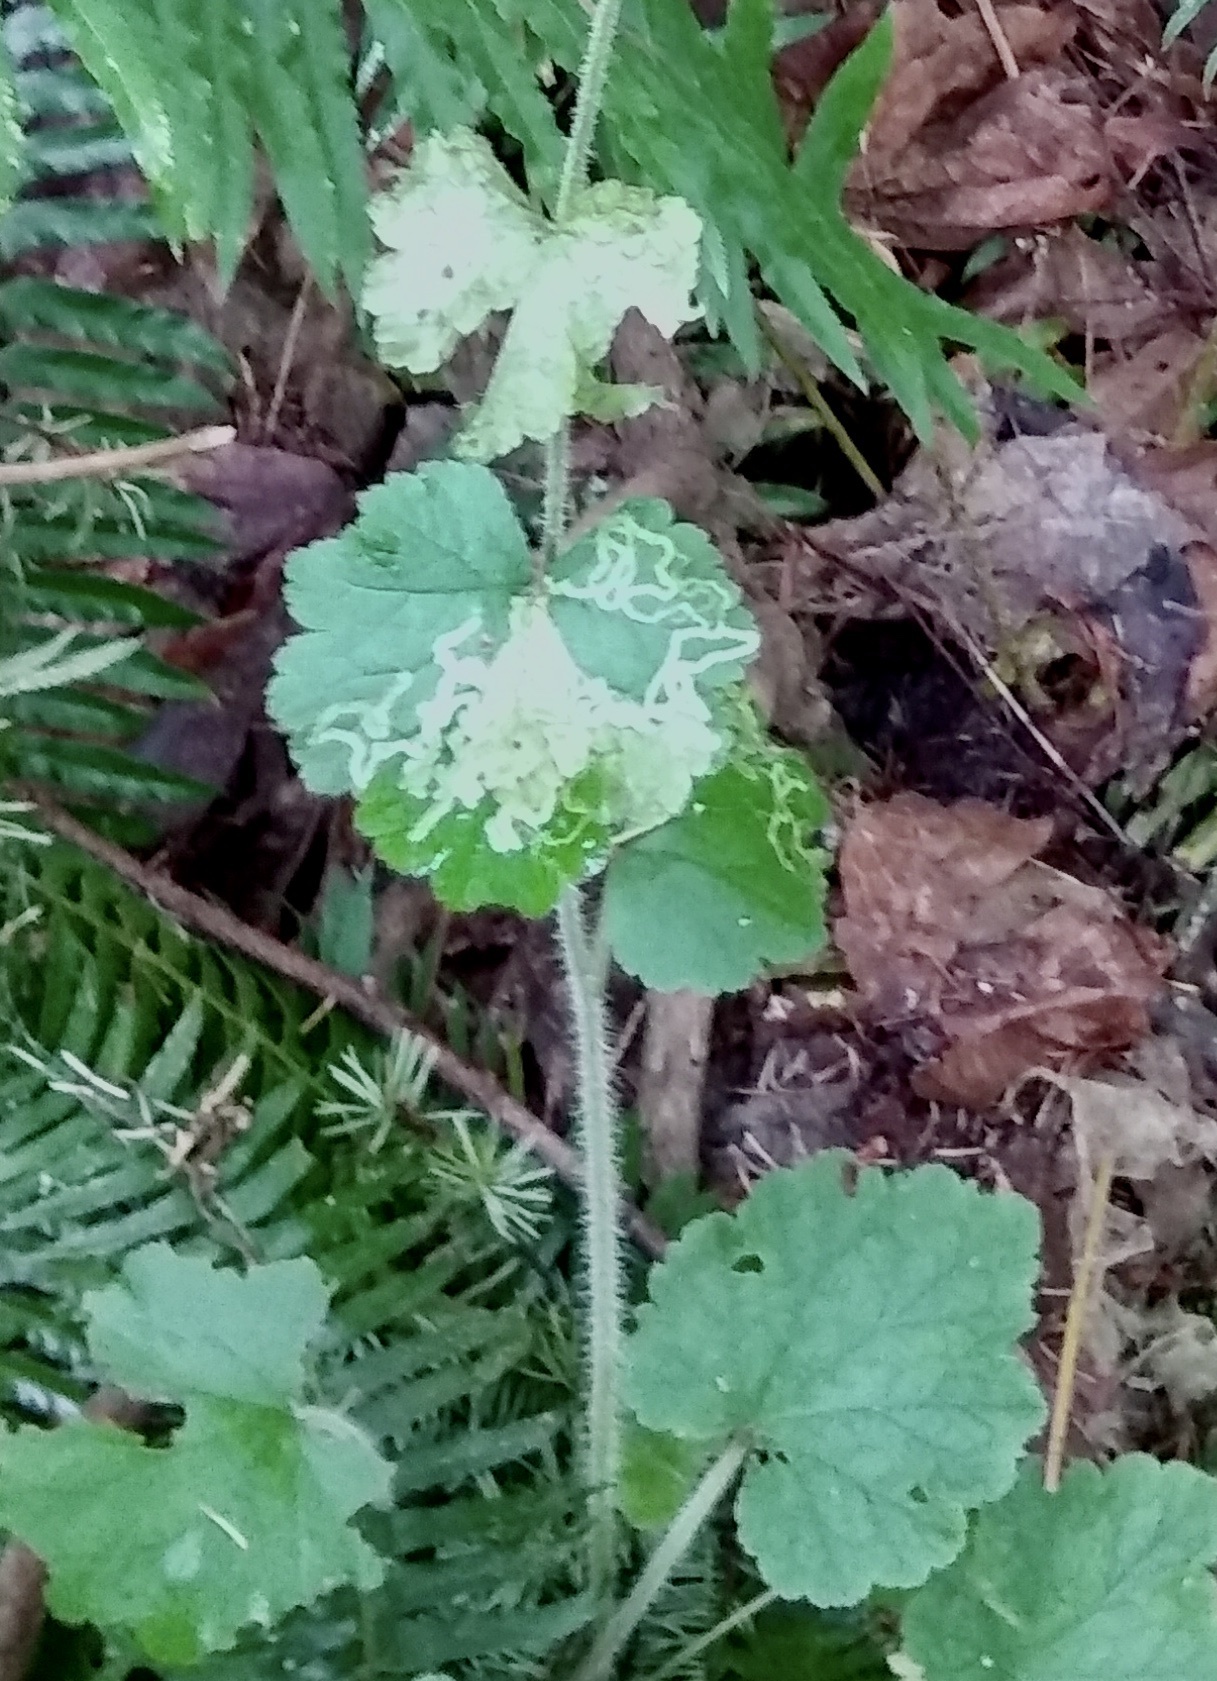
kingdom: Animalia
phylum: Arthropoda
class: Insecta
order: Diptera
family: Agromyzidae
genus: Phytomyza
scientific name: Phytomyza tiarellae
